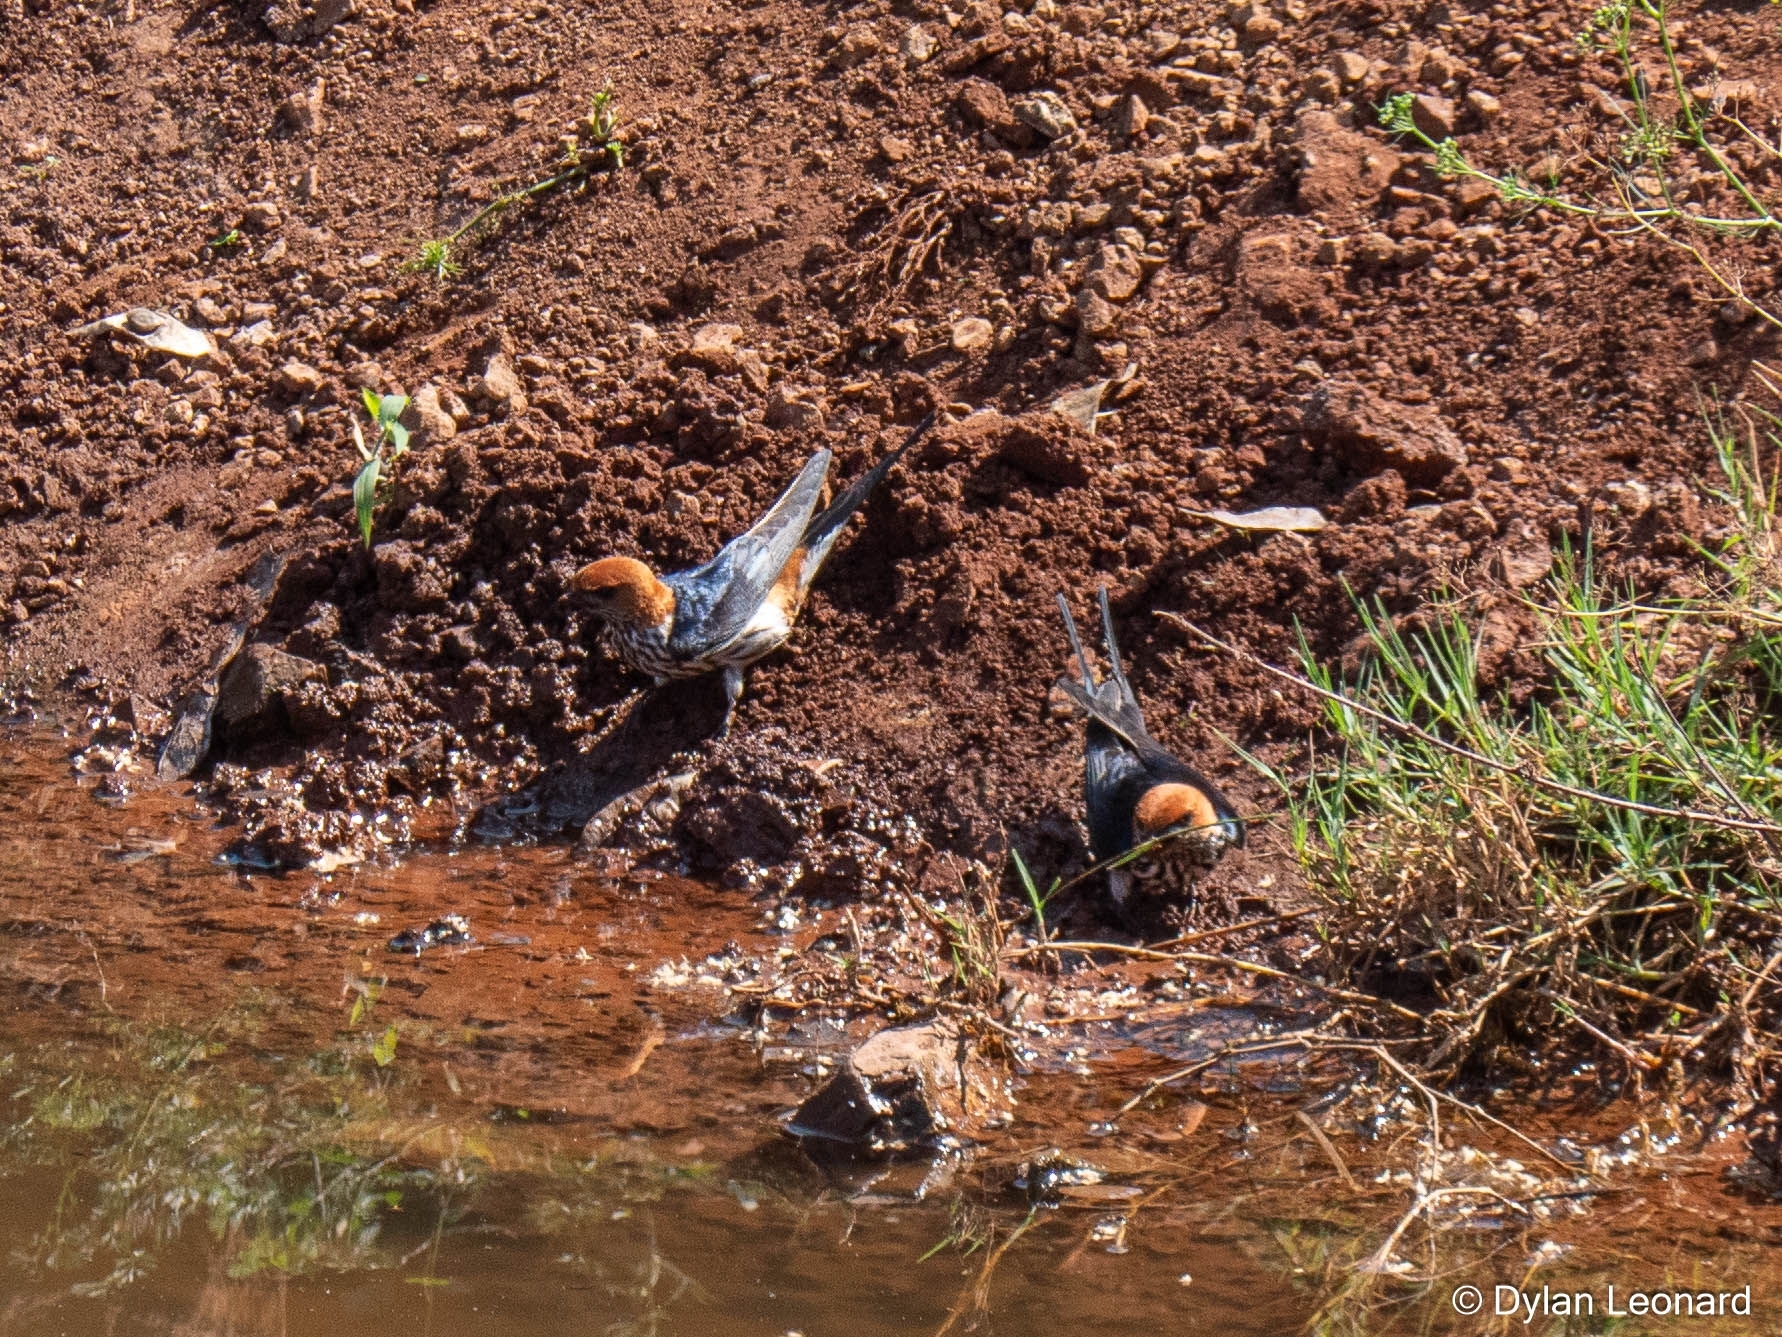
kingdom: Animalia
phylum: Chordata
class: Aves
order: Passeriformes
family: Hirundinidae
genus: Cecropis
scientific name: Cecropis abyssinica
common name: Lesser striped-swallow
